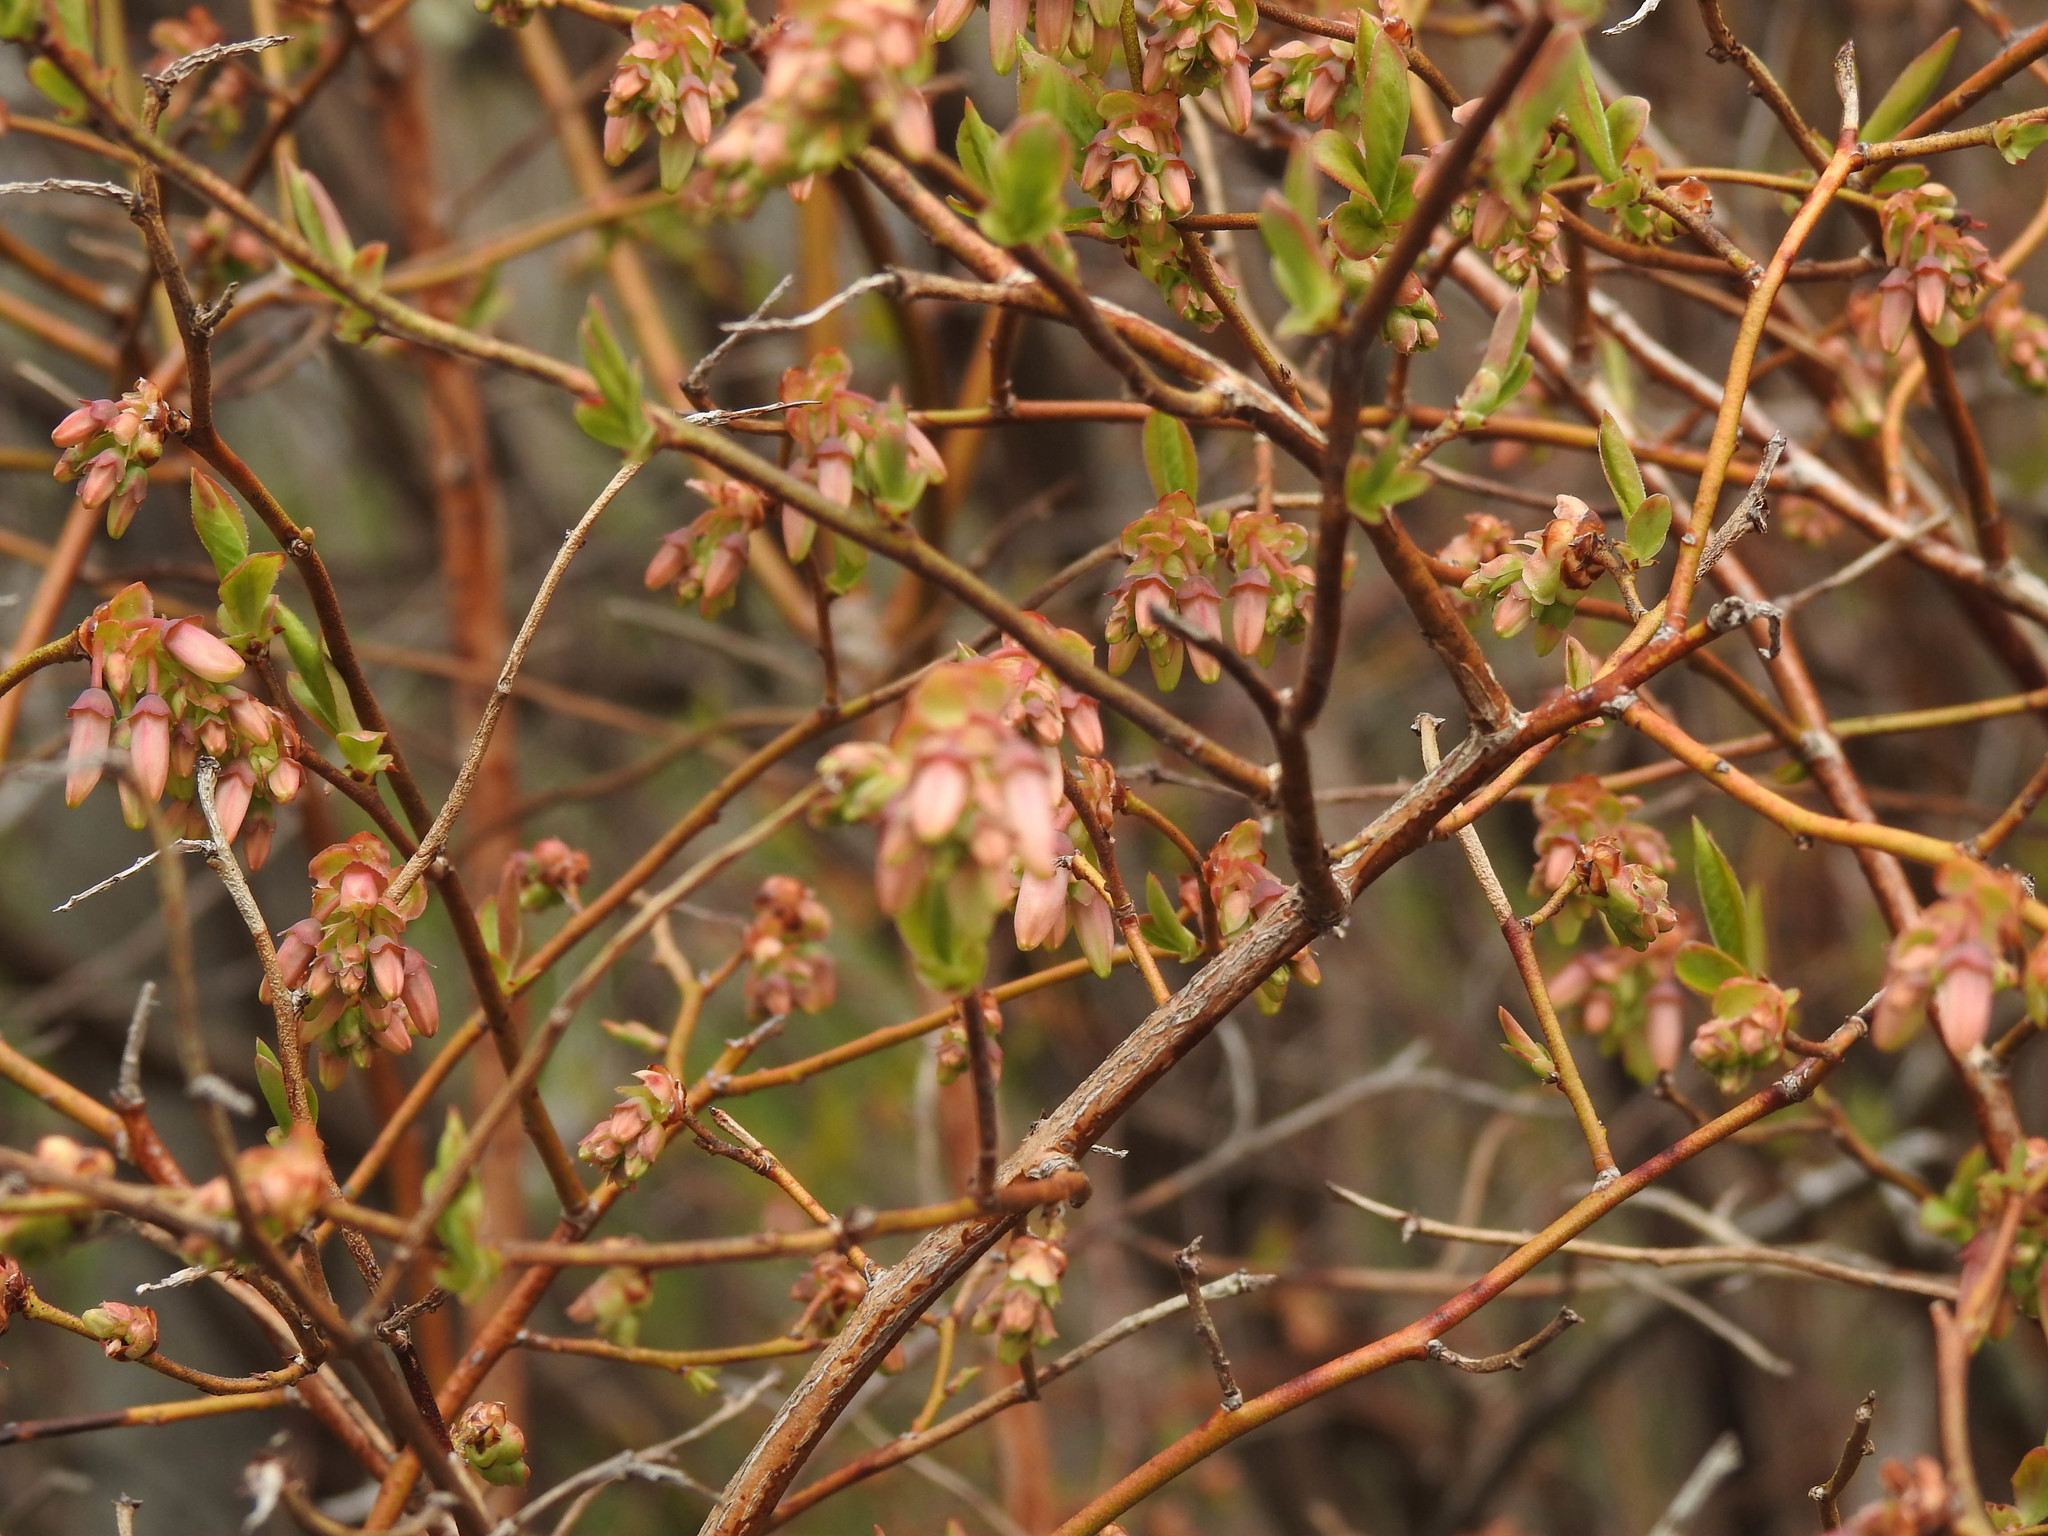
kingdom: Plantae
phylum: Tracheophyta
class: Magnoliopsida
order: Ericales
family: Ericaceae
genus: Vaccinium
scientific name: Vaccinium corymbosum
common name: Blueberry
